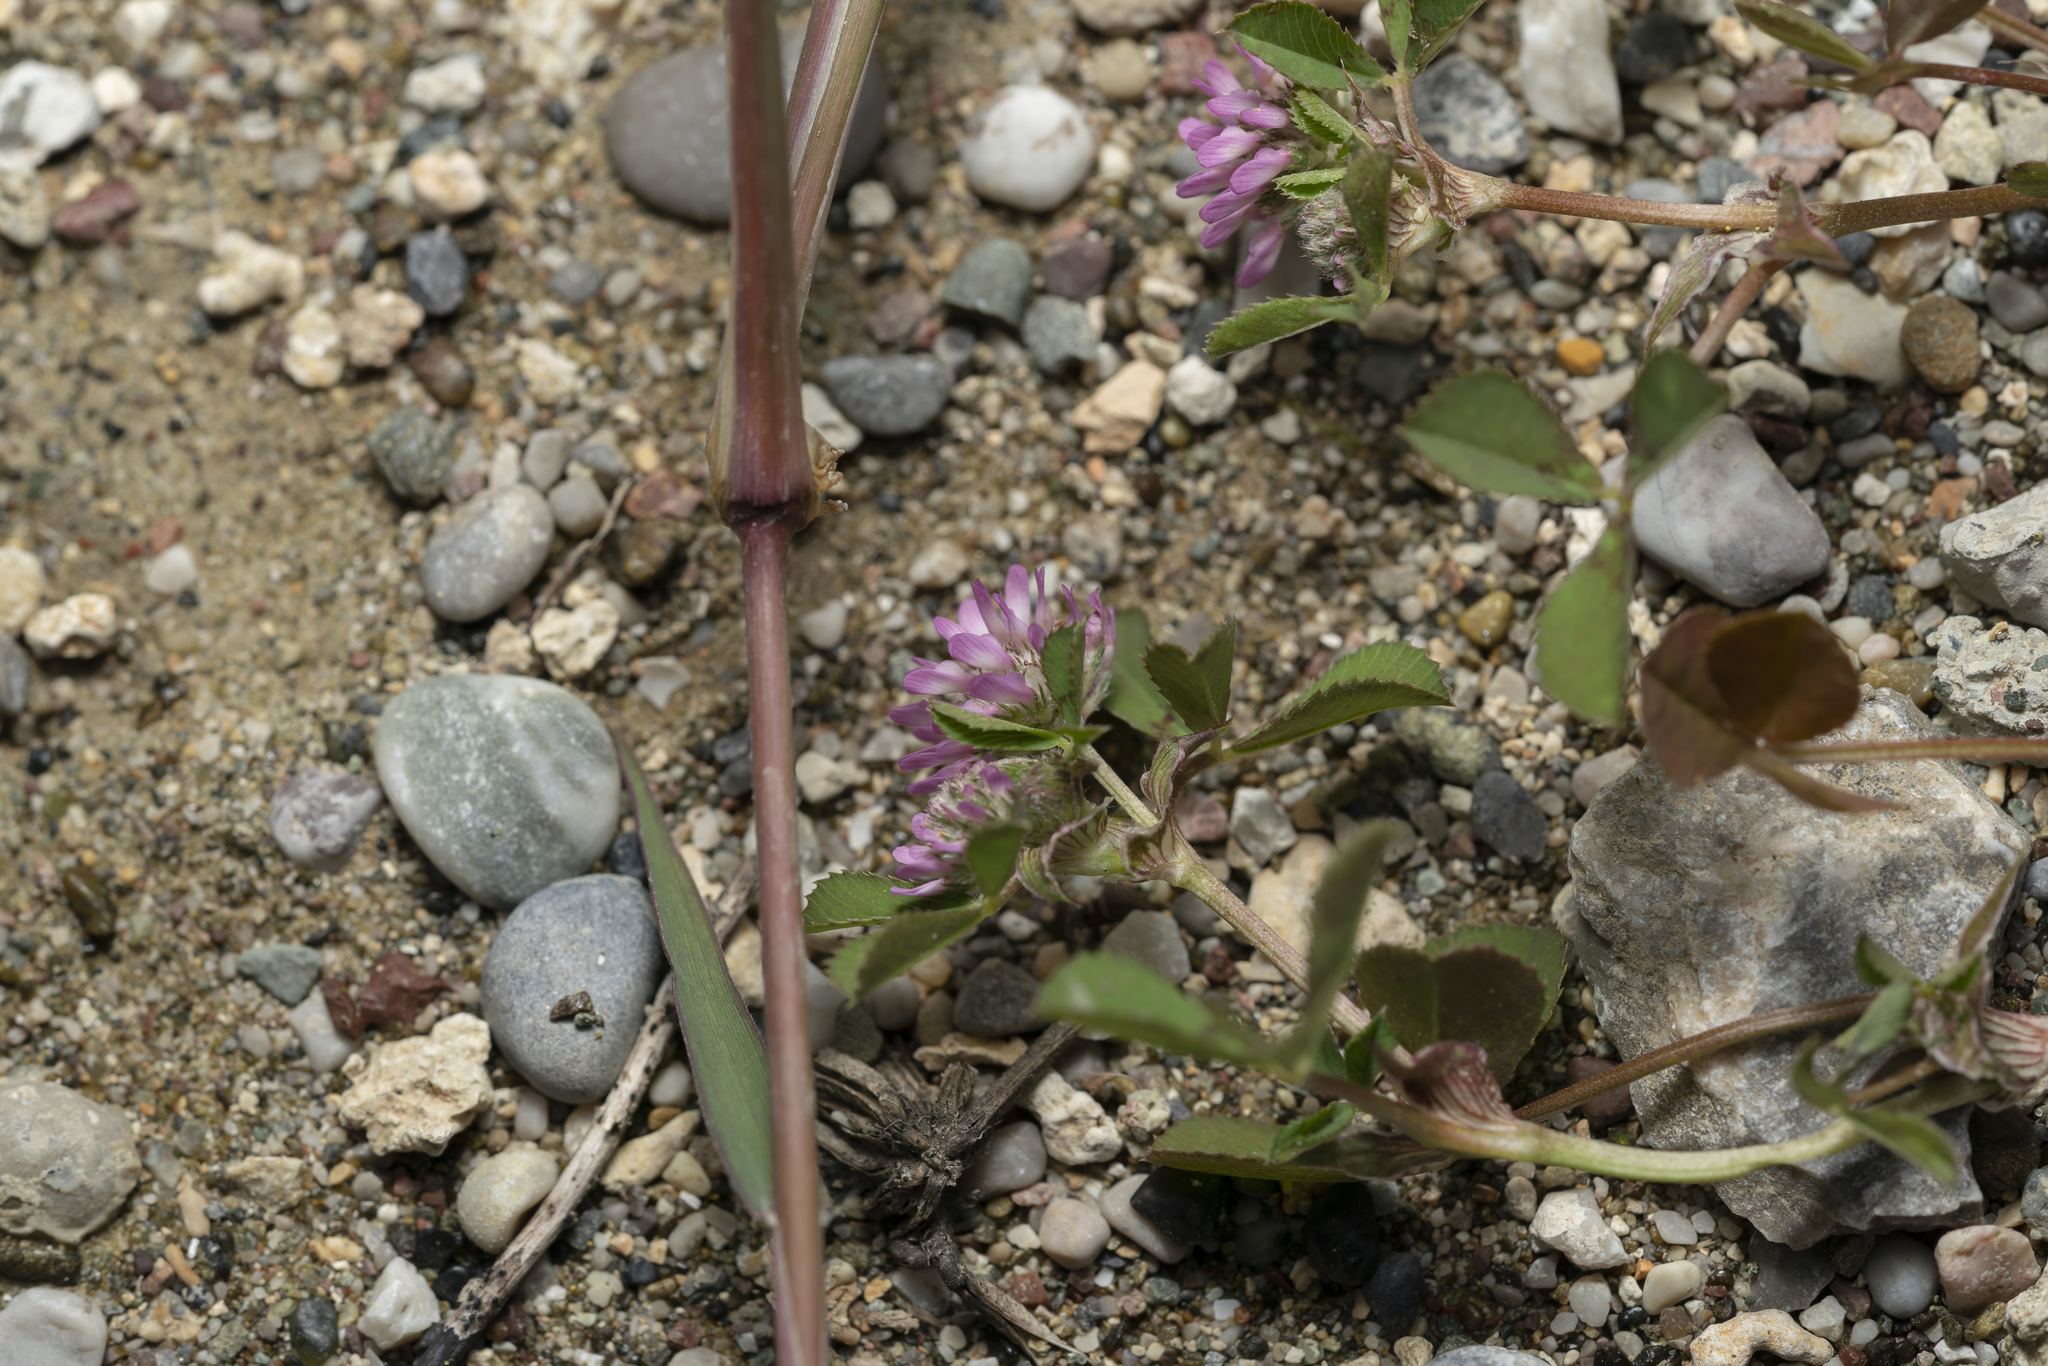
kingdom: Plantae
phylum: Tracheophyta
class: Magnoliopsida
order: Fabales
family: Fabaceae
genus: Trifolium
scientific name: Trifolium resupinatum
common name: Reversed clover
